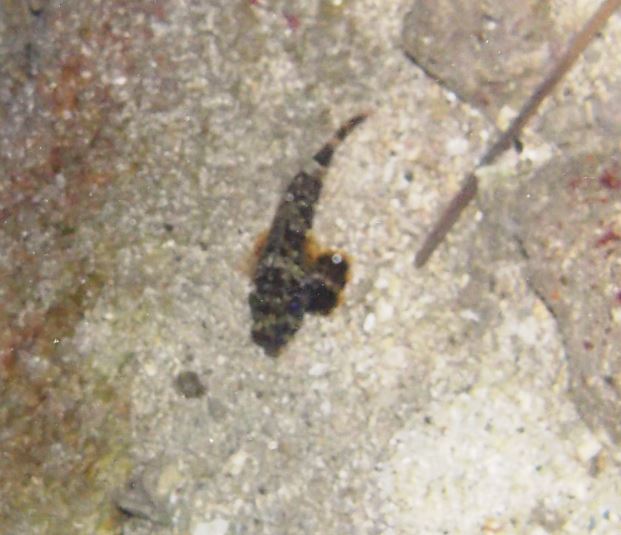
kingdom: Animalia
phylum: Chordata
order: Perciformes
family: Callionymidae
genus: Neosynchiropus
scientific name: Neosynchiropus ocellatus
